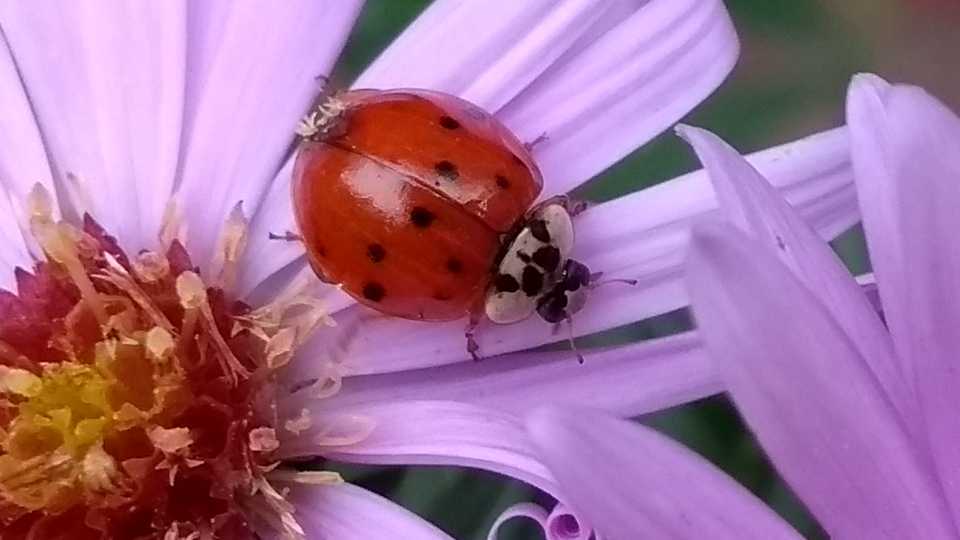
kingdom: Fungi
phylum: Ascomycota
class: Laboulbeniomycetes
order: Laboulbeniales
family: Laboulbeniaceae
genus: Hesperomyces
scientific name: Hesperomyces harmoniae
